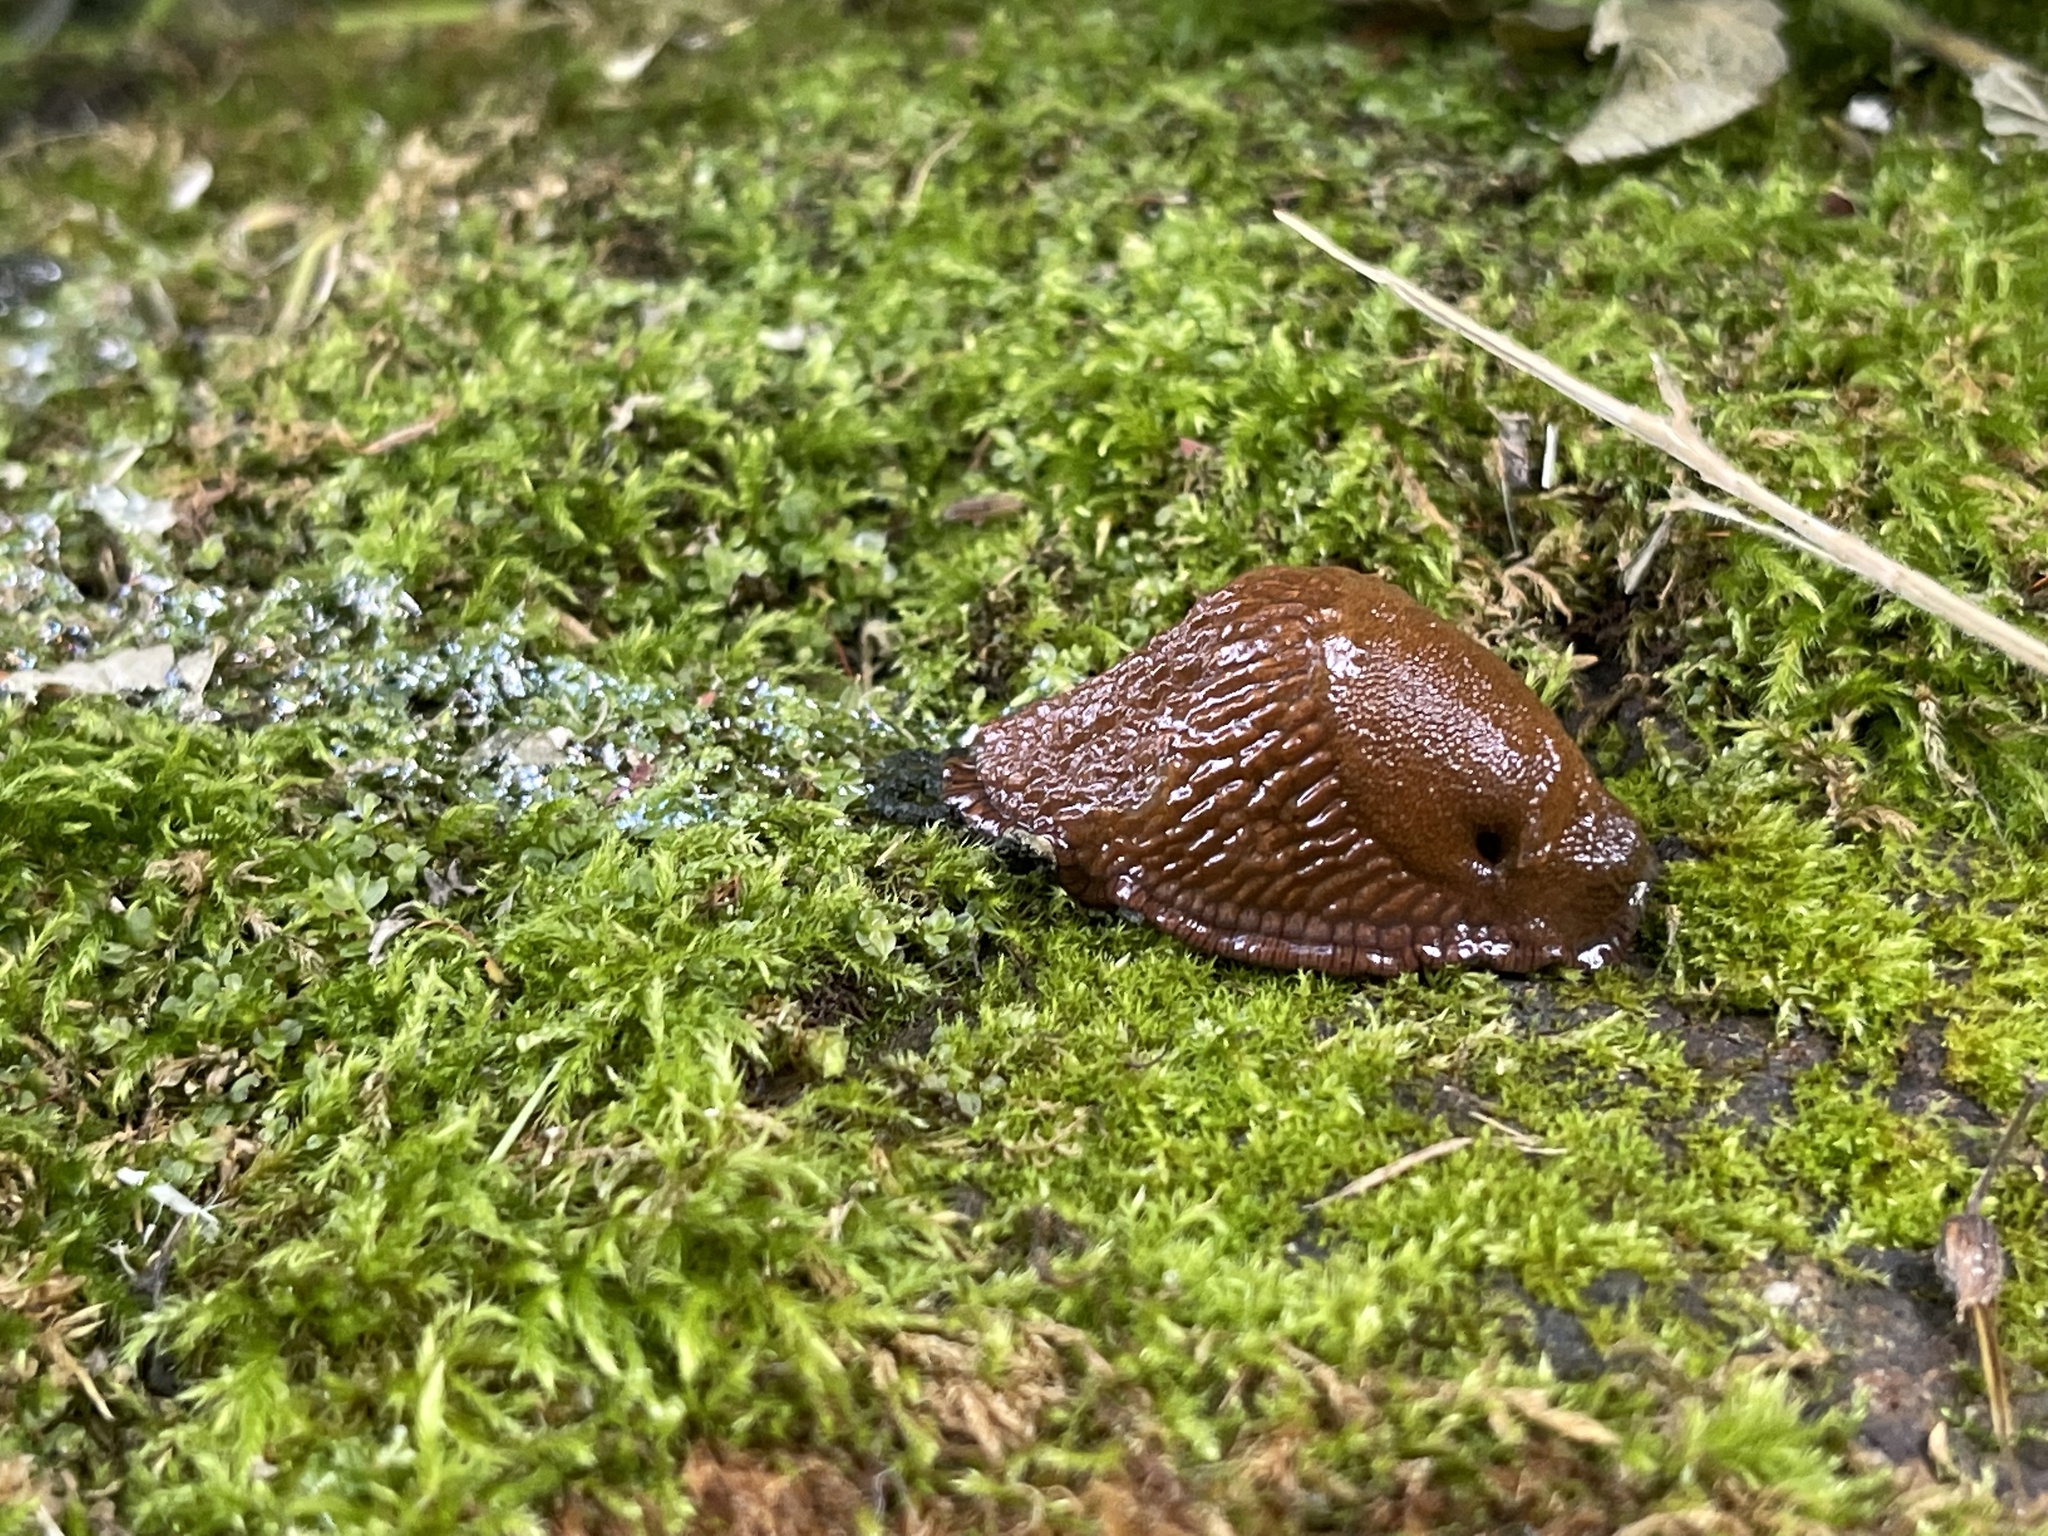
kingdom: Animalia
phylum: Mollusca
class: Gastropoda
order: Stylommatophora
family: Arionidae
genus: Arion
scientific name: Arion
